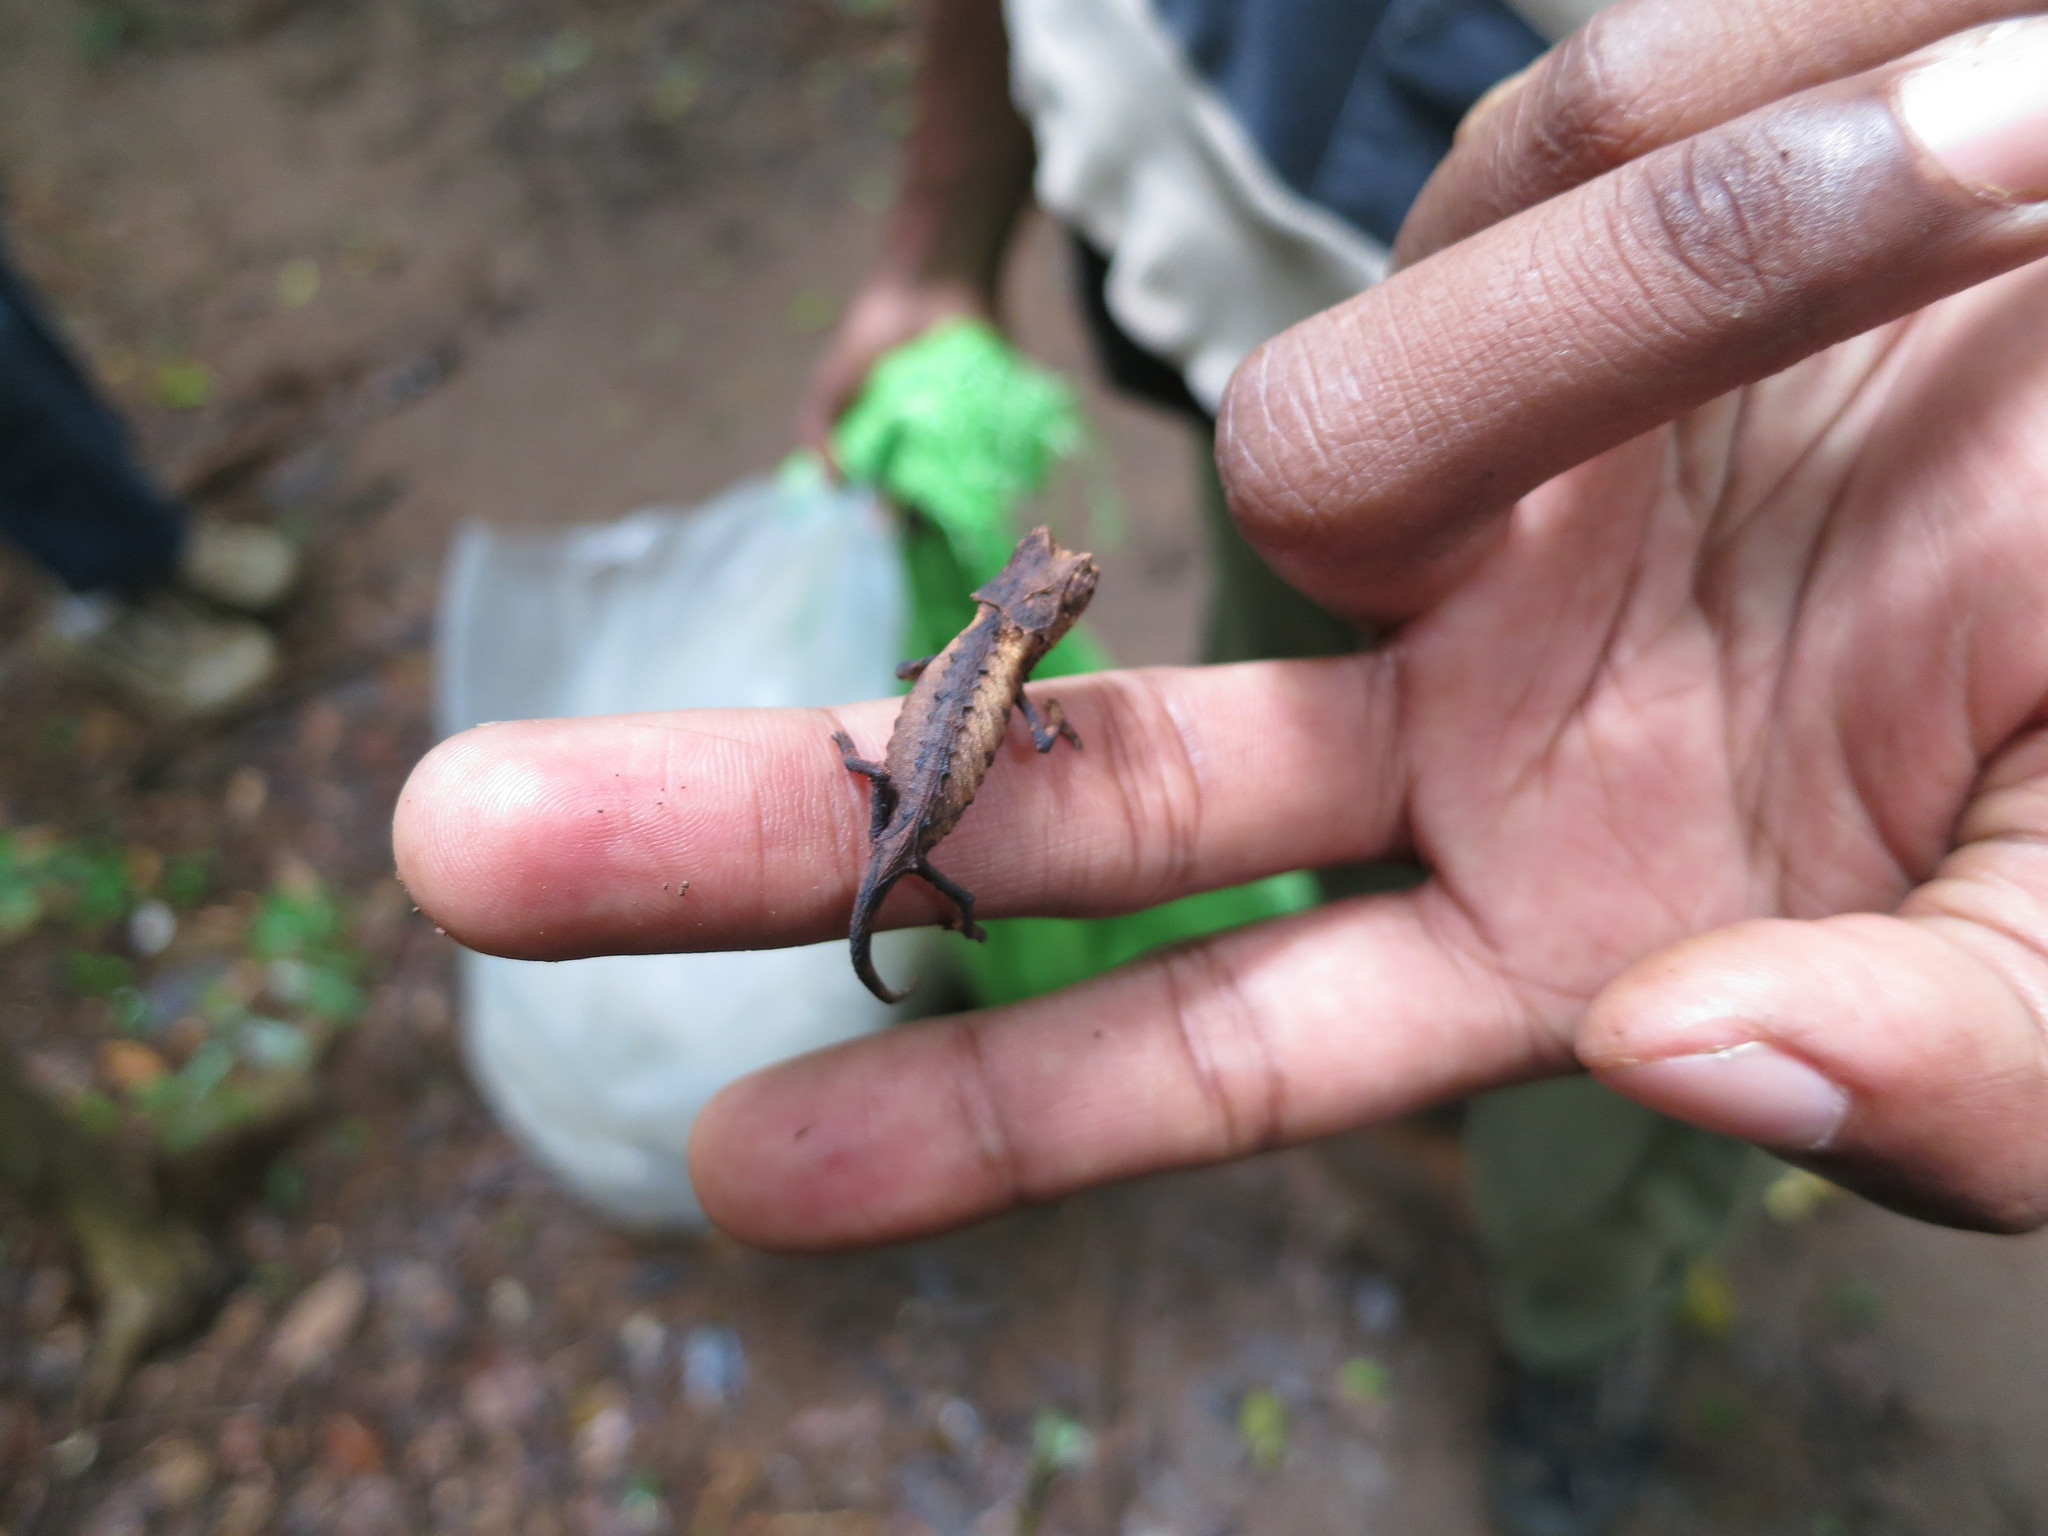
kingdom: Animalia
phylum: Chordata
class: Squamata
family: Chamaeleonidae
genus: Brookesia
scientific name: Brookesia stumpffi
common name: Plated leaf chameleon
